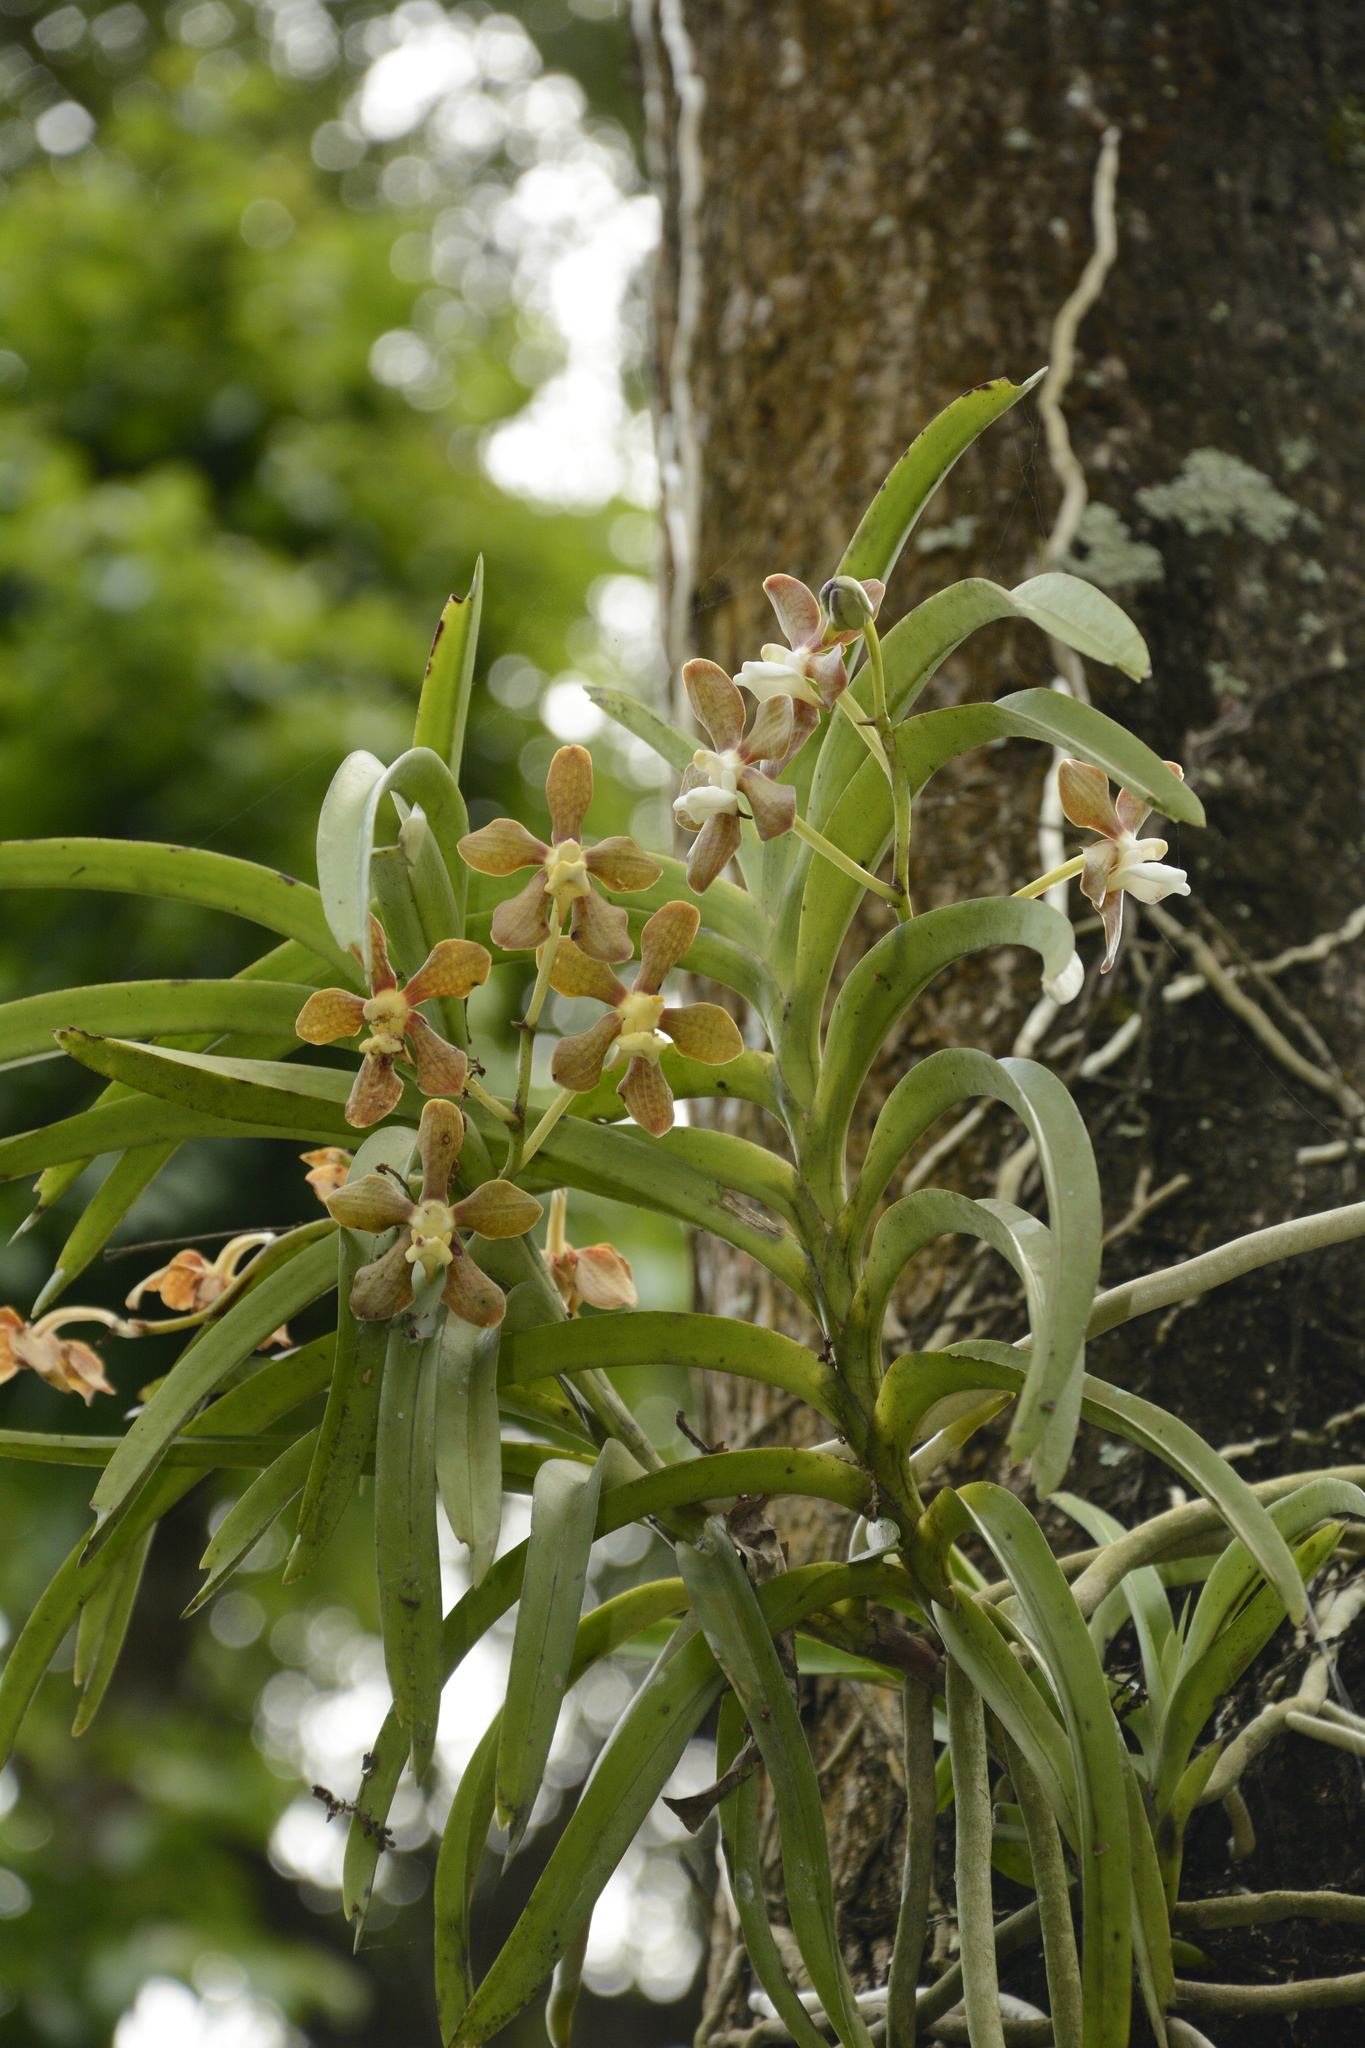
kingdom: Plantae
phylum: Tracheophyta
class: Liliopsida
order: Asparagales
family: Orchidaceae
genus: Vanda
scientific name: Vanda wightii
